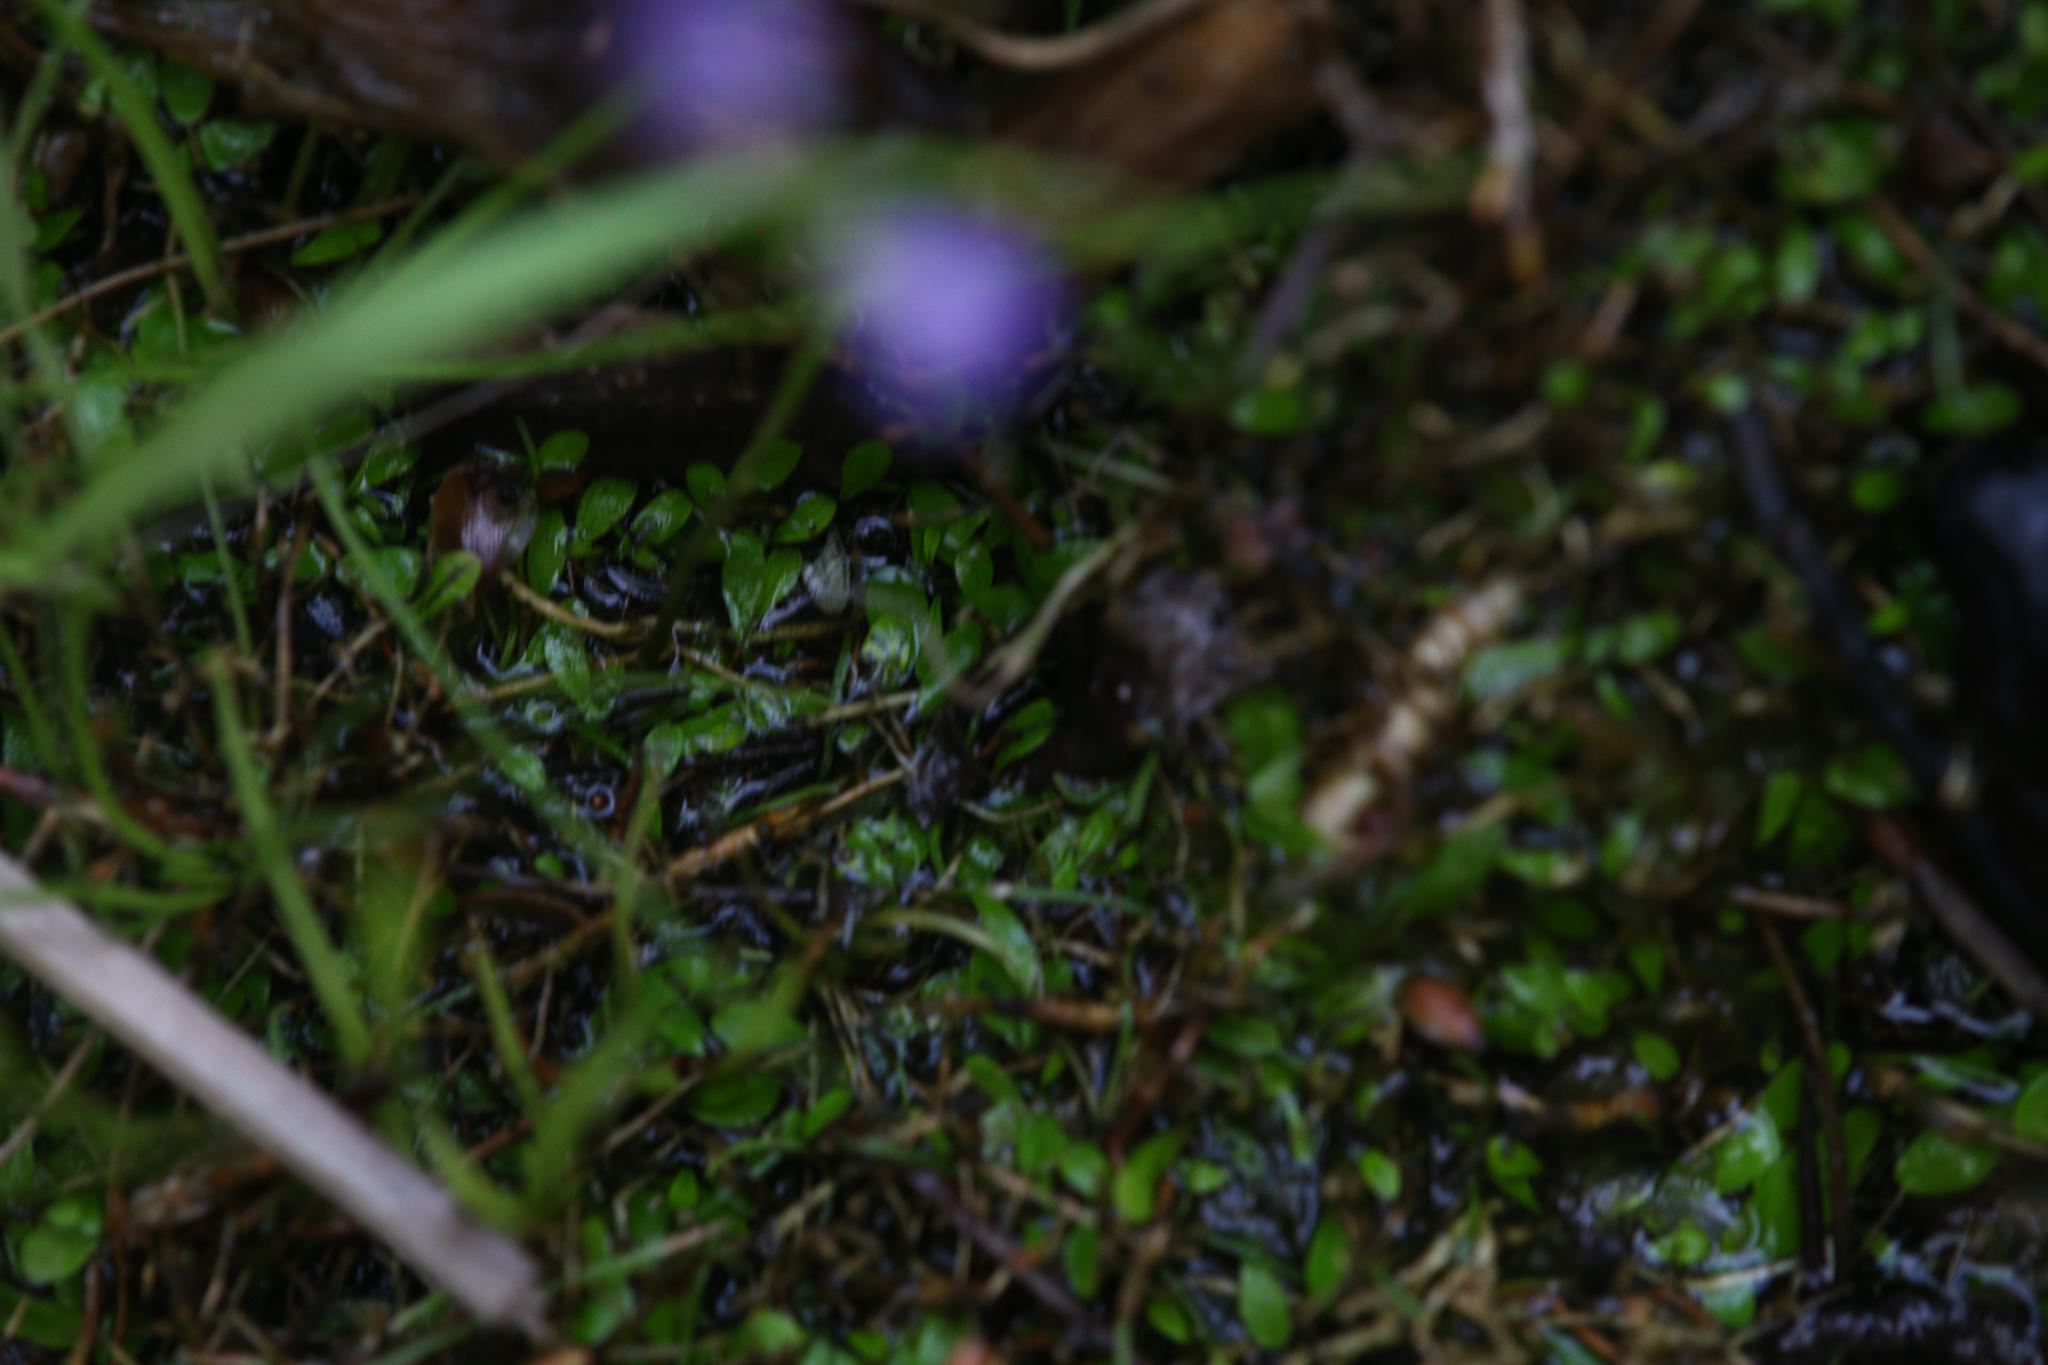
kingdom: Plantae
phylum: Tracheophyta
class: Magnoliopsida
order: Lamiales
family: Lentibulariaceae
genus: Utricularia
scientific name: Utricularia uliginosa
